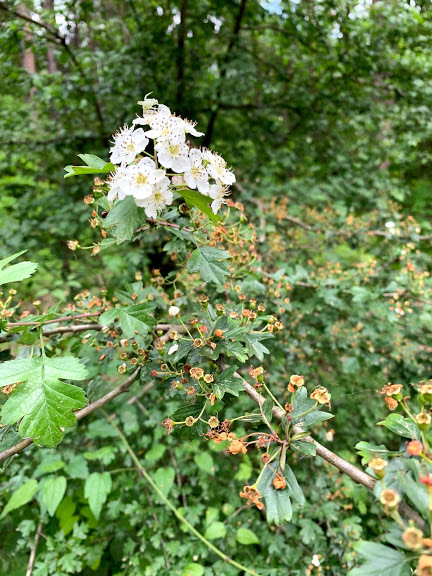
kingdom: Plantae
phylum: Tracheophyta
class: Magnoliopsida
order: Rosales
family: Rosaceae
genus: Crataegus
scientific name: Crataegus monogyna
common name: Hawthorn
